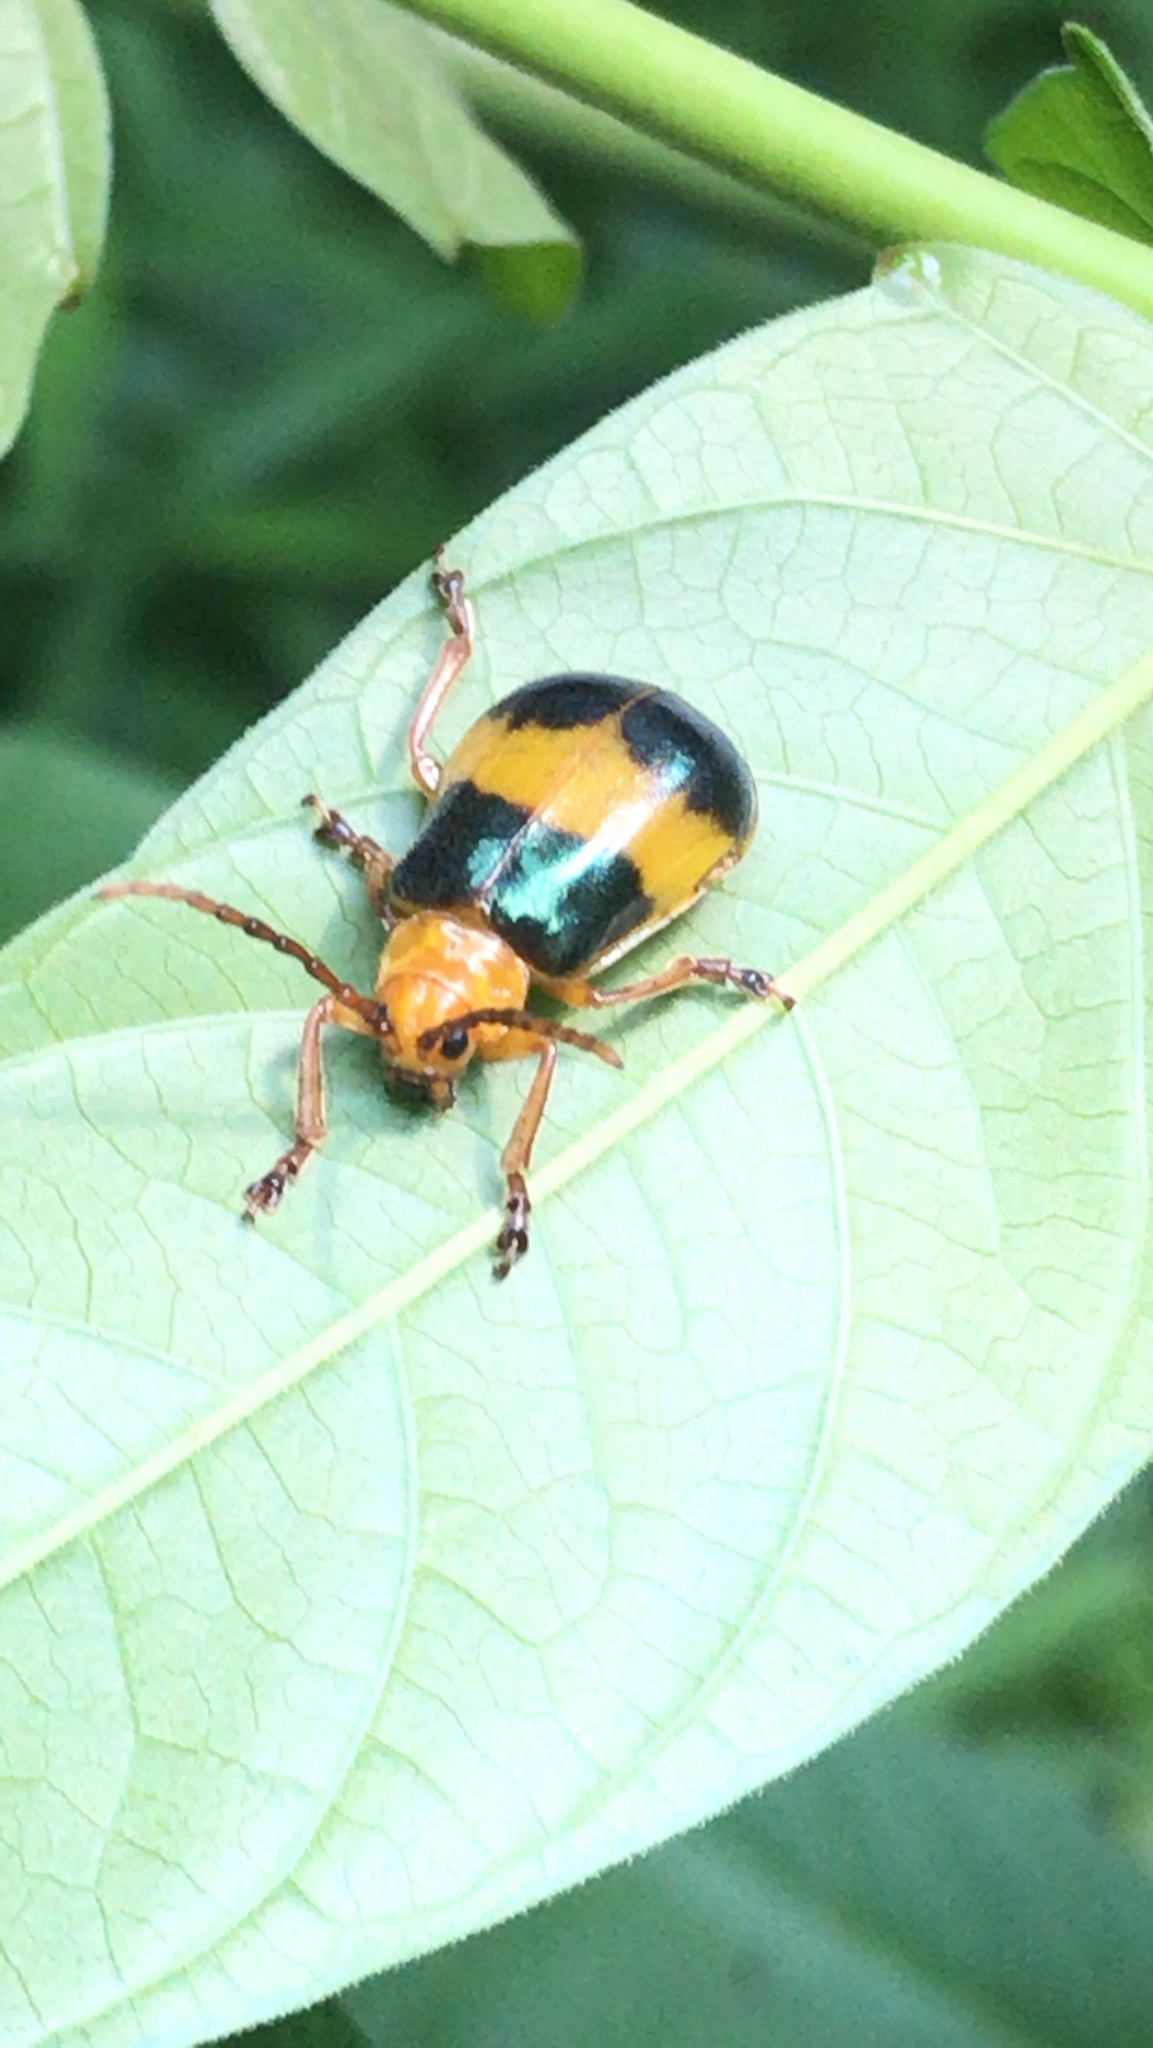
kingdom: Animalia
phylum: Arthropoda
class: Insecta
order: Coleoptera
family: Chrysomelidae
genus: Monocesta
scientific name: Monocesta coryli
